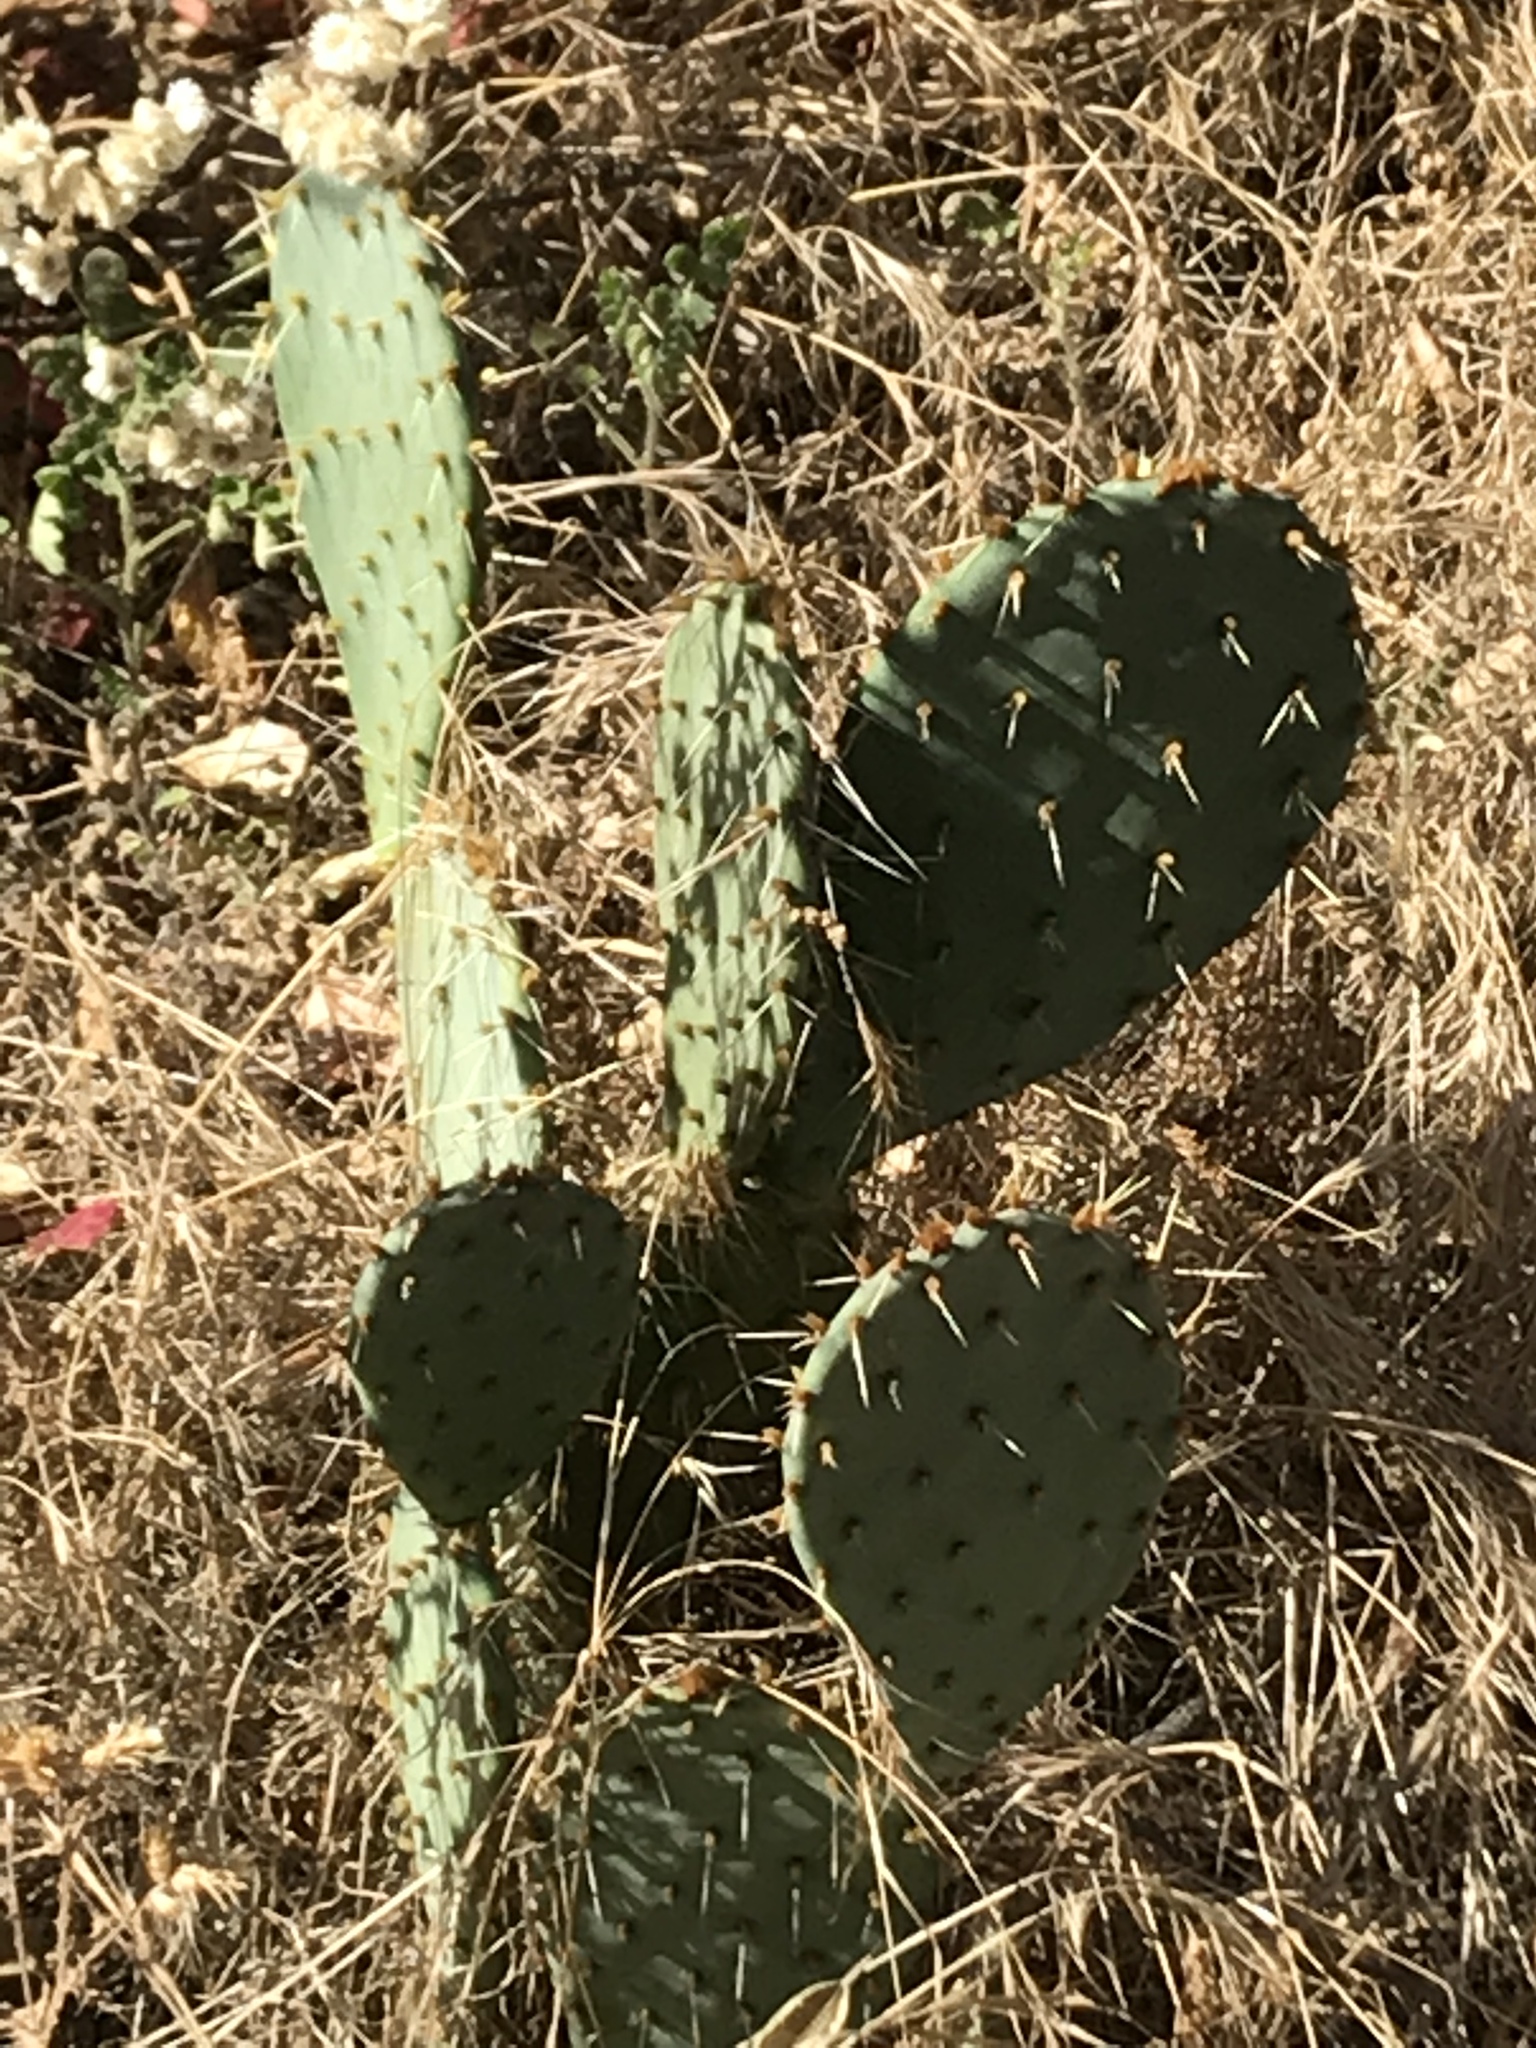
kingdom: Plantae
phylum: Tracheophyta
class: Magnoliopsida
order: Caryophyllales
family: Cactaceae
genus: Opuntia
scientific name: Opuntia littoralis
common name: Coastal prickly-pear
